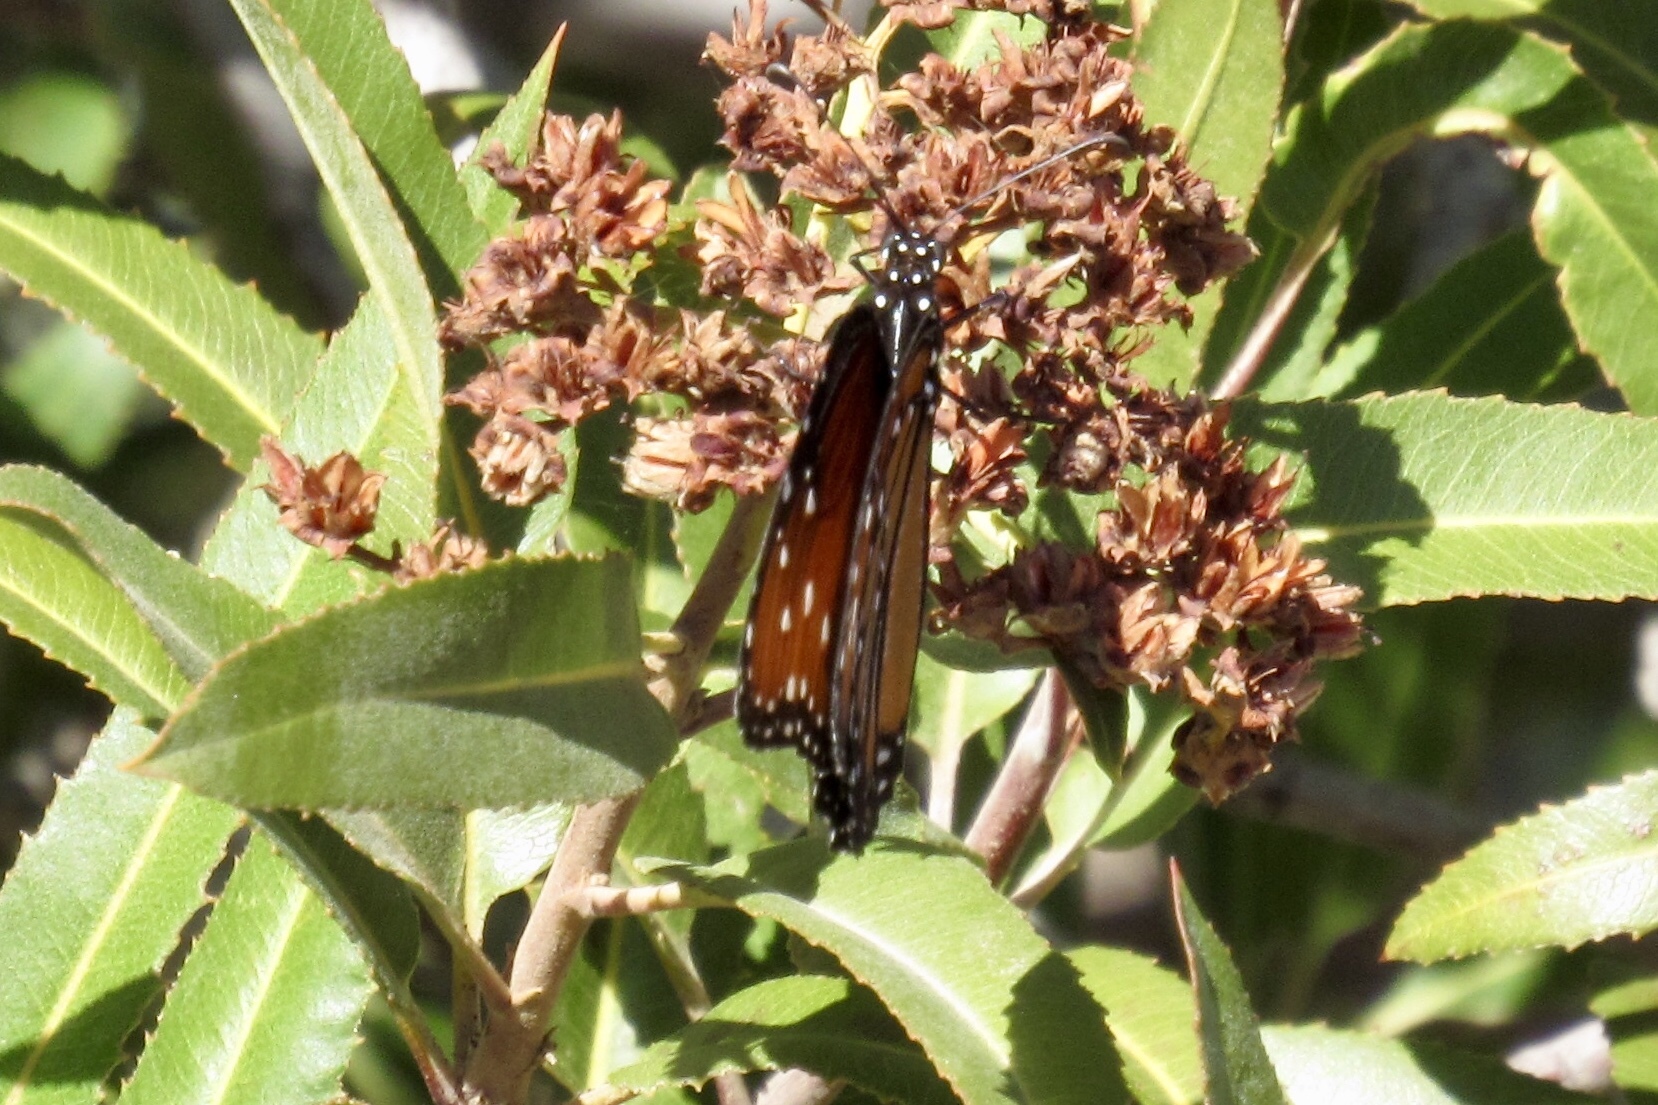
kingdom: Animalia
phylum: Arthropoda
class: Insecta
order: Lepidoptera
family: Nymphalidae
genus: Danaus
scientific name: Danaus gilippus
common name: Queen
